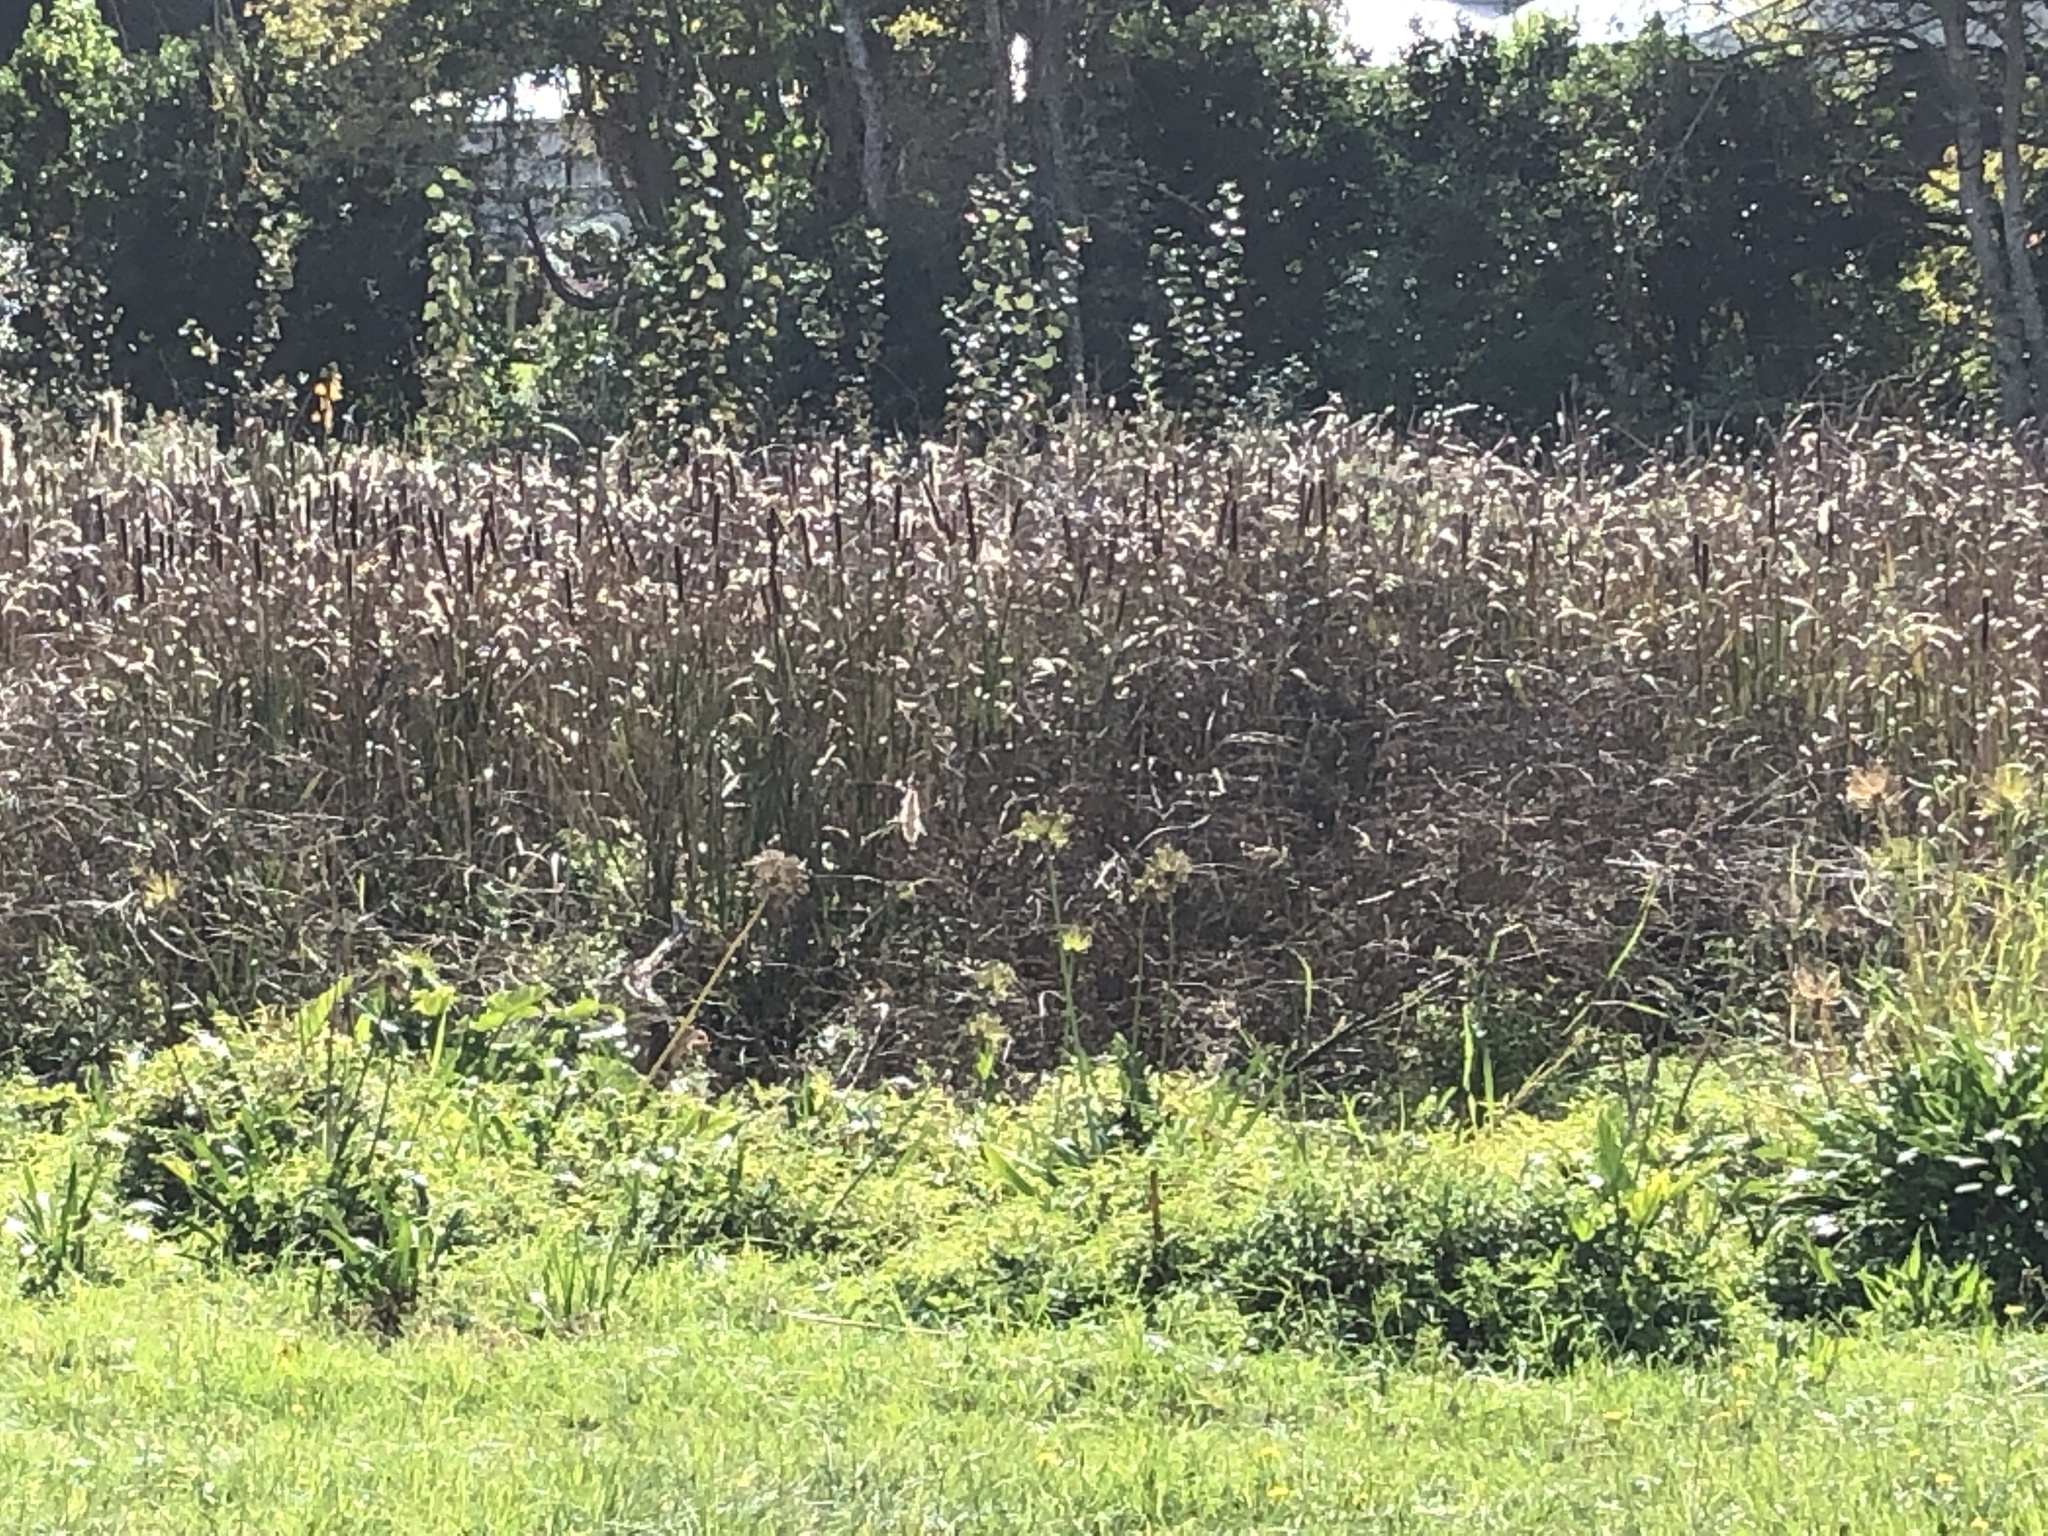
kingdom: Plantae
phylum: Tracheophyta
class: Liliopsida
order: Poales
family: Typhaceae
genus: Typha
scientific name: Typha capensis
